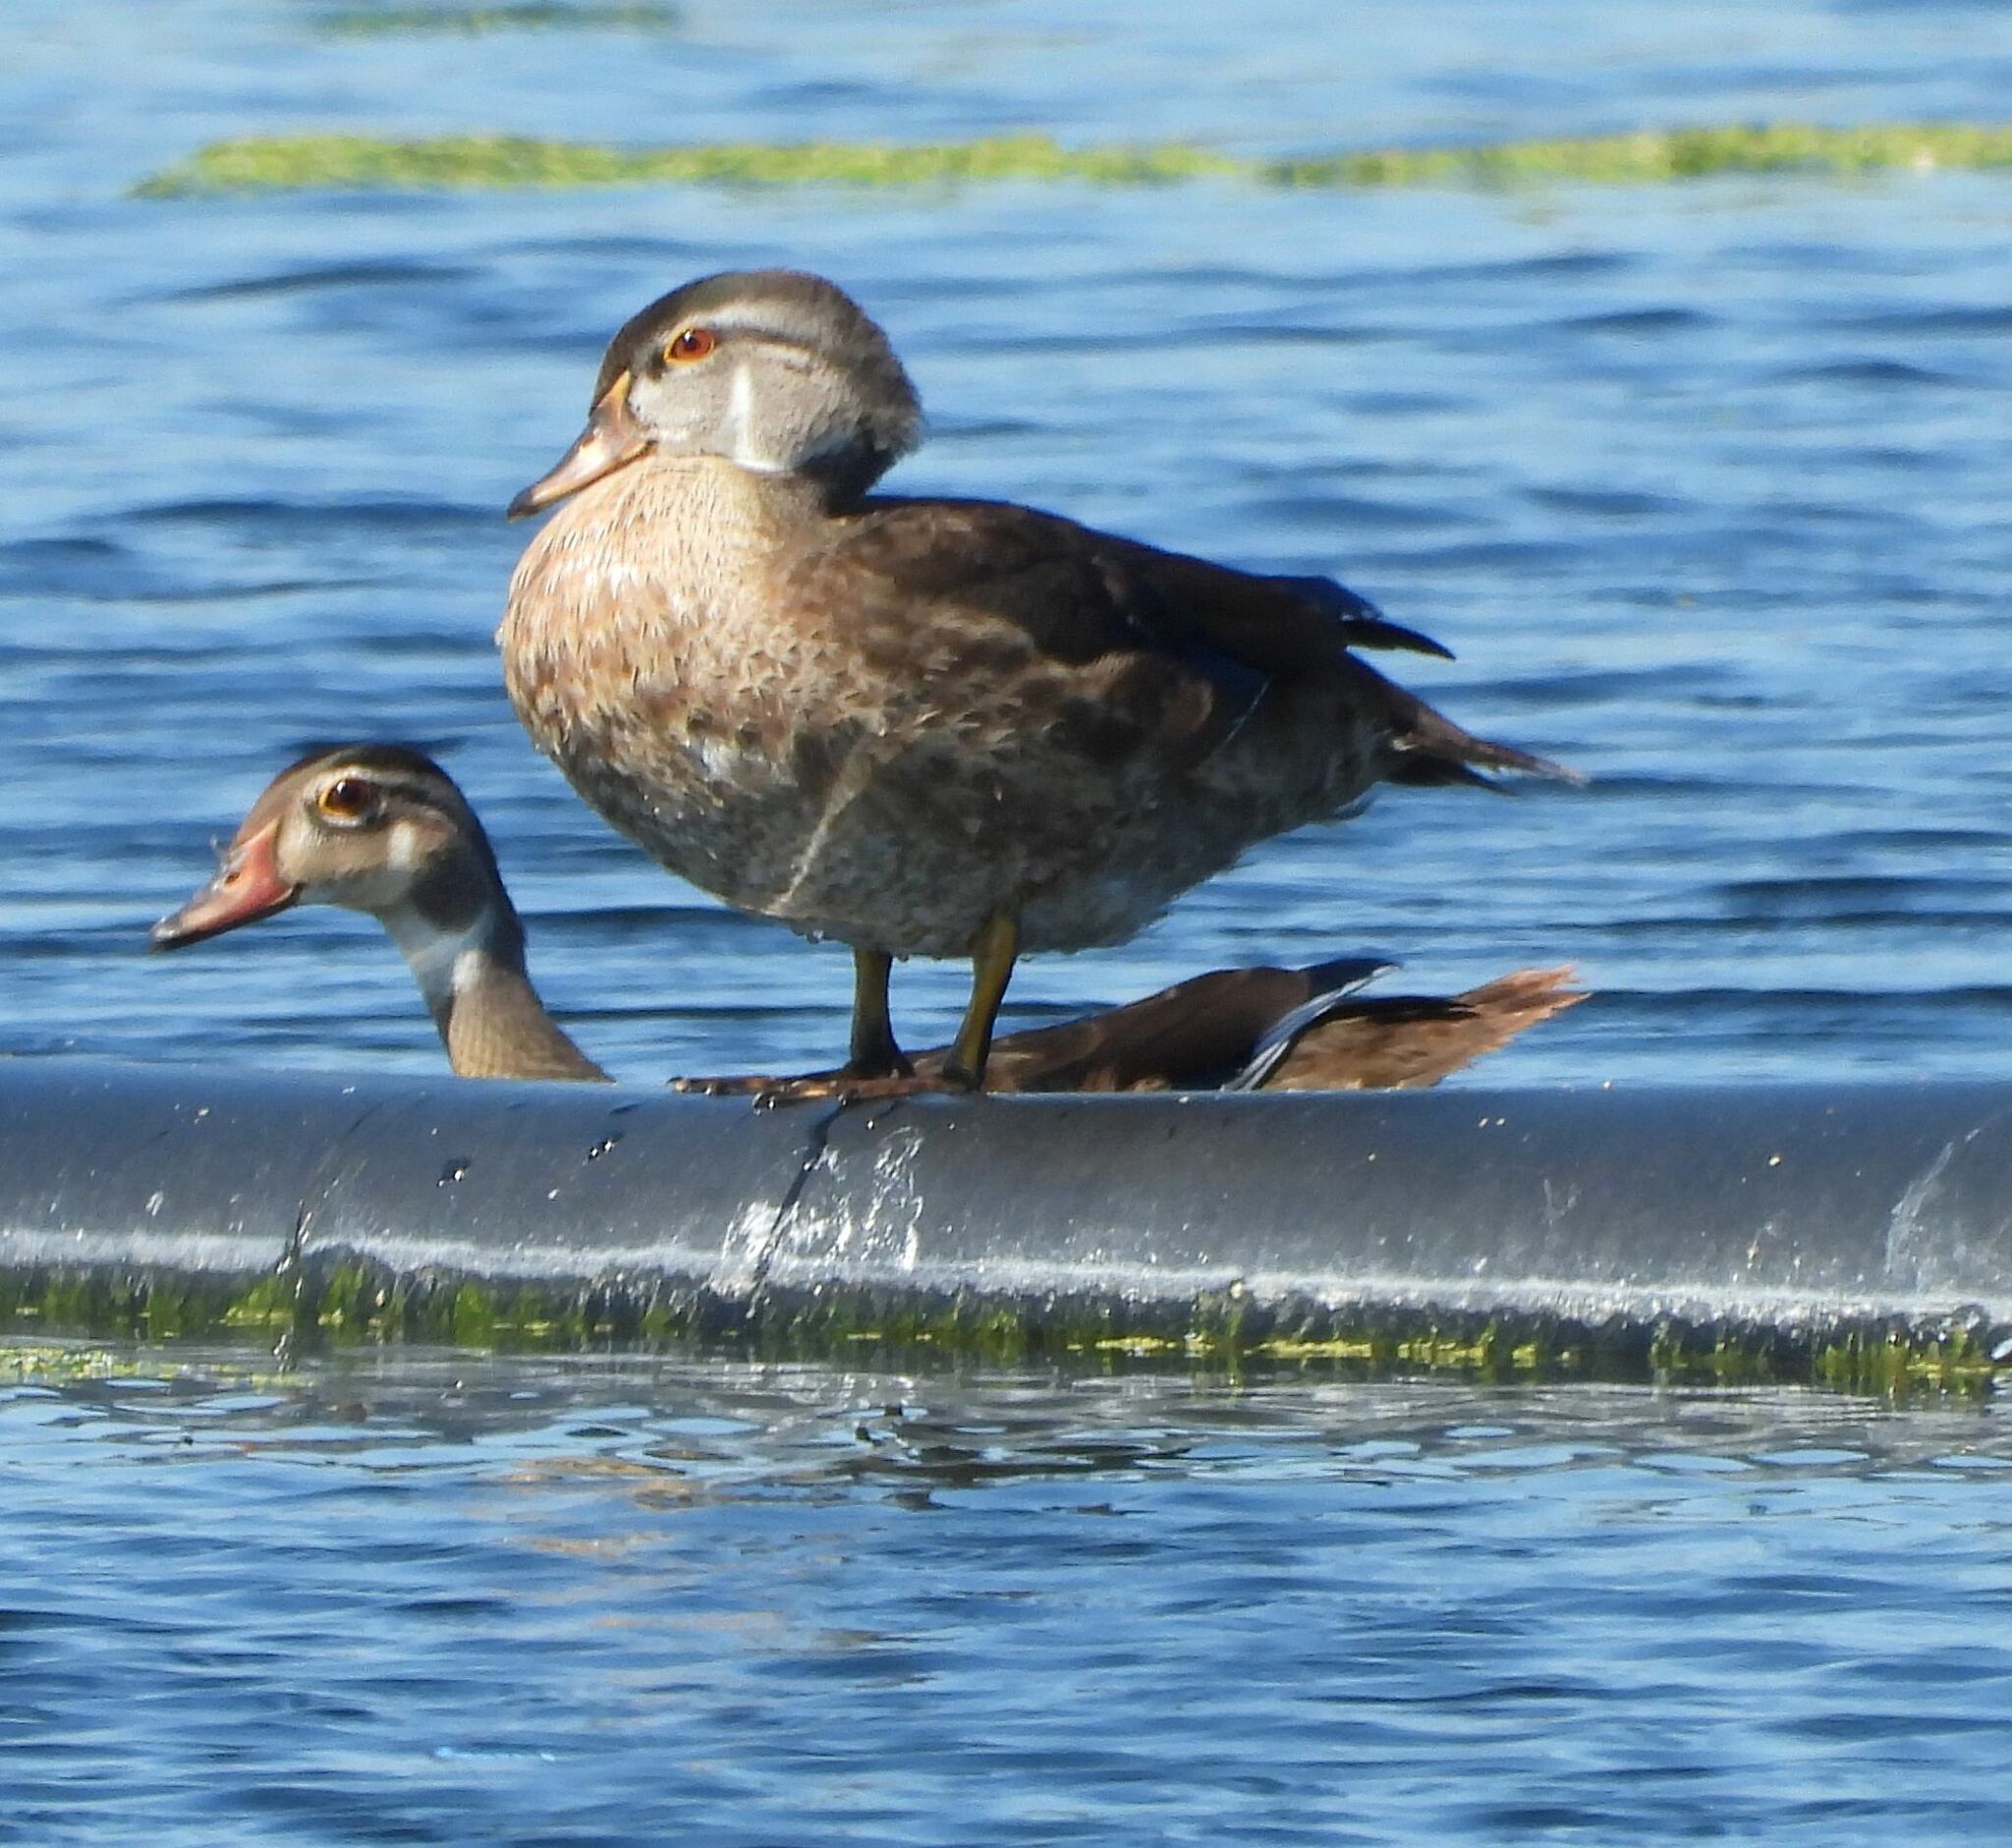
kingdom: Animalia
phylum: Chordata
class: Aves
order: Anseriformes
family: Anatidae
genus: Aix
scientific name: Aix sponsa
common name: Wood duck
